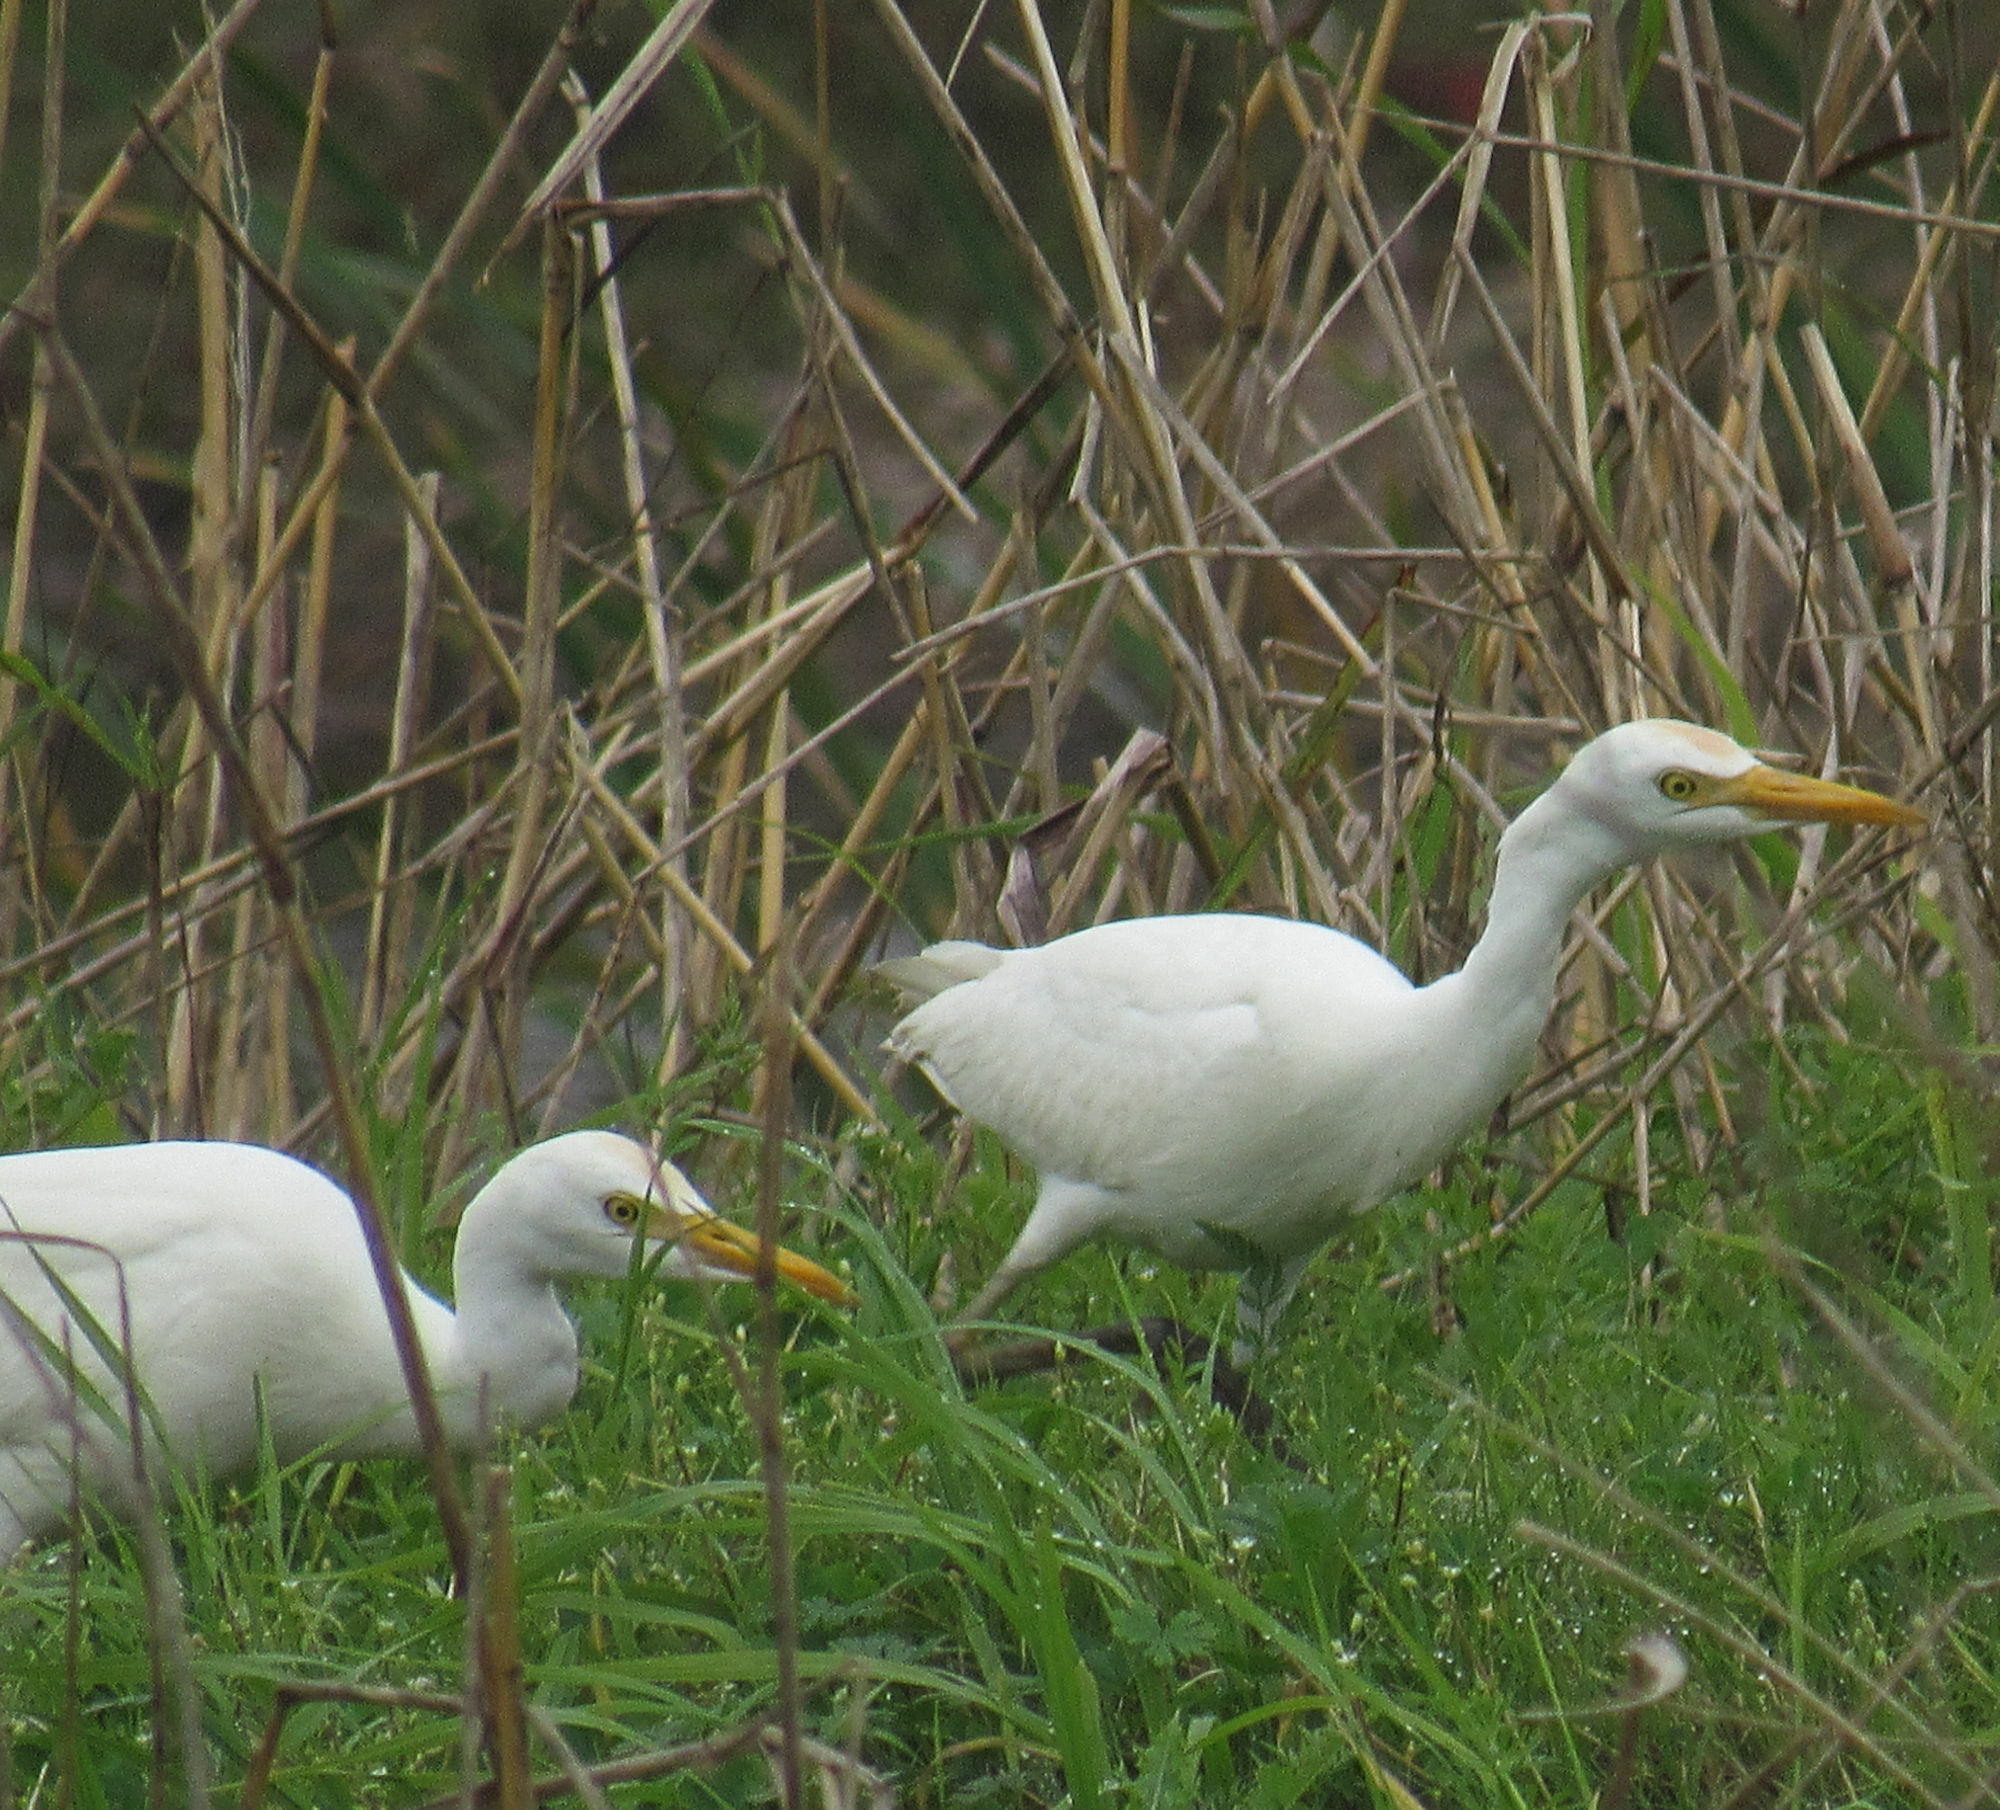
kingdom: Animalia
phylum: Chordata
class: Aves
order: Pelecaniformes
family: Ardeidae
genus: Bubulcus
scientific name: Bubulcus ibis
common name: Cattle egret
